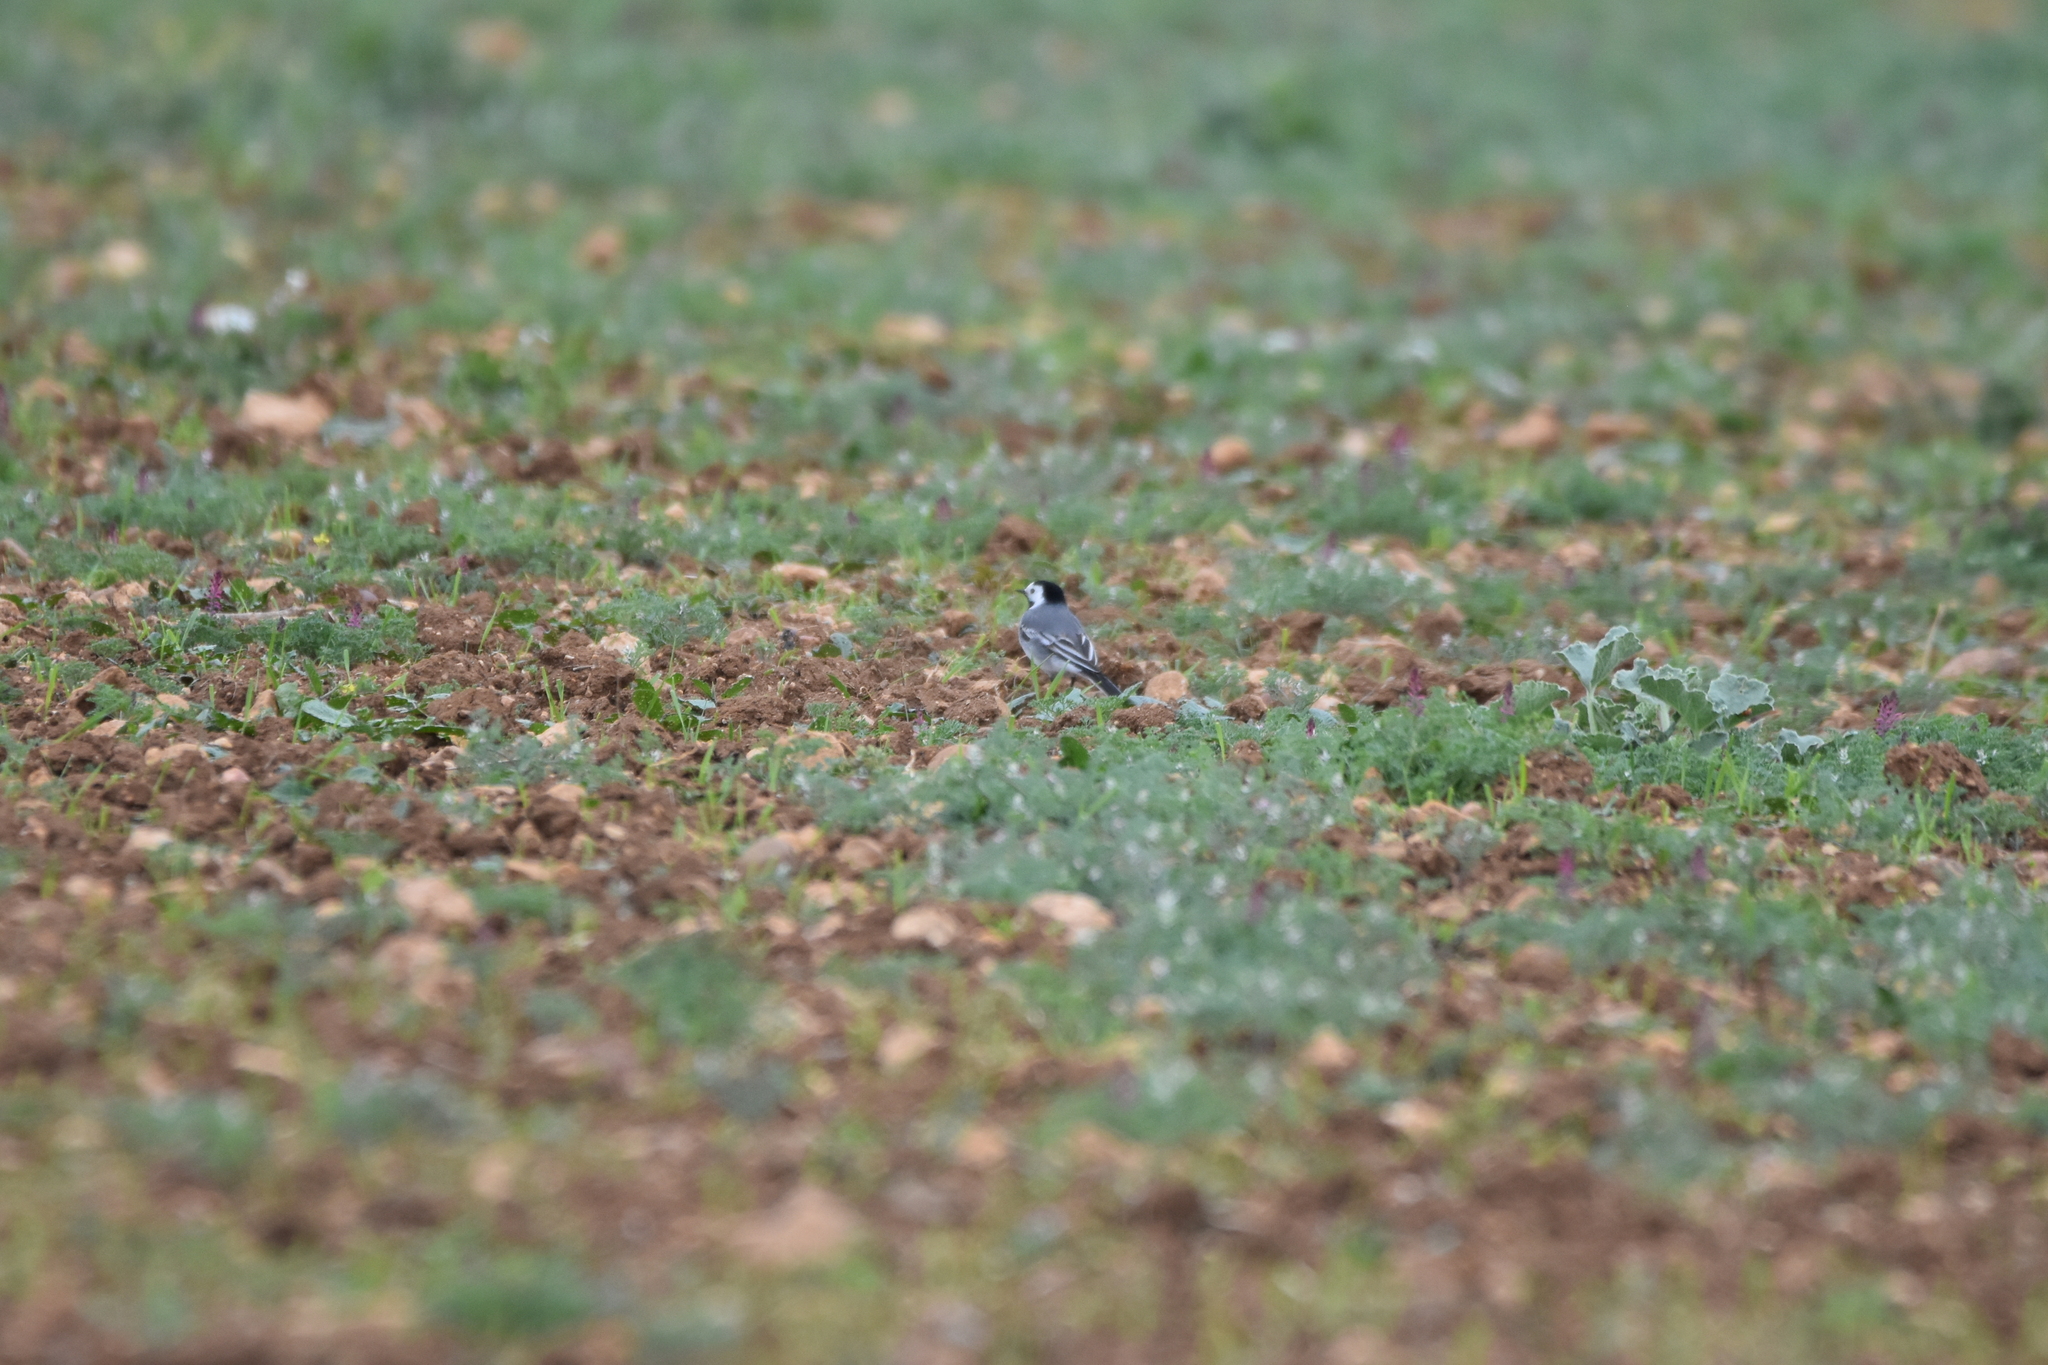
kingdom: Animalia
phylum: Chordata
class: Aves
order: Passeriformes
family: Motacillidae
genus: Motacilla
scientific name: Motacilla alba
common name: White wagtail
